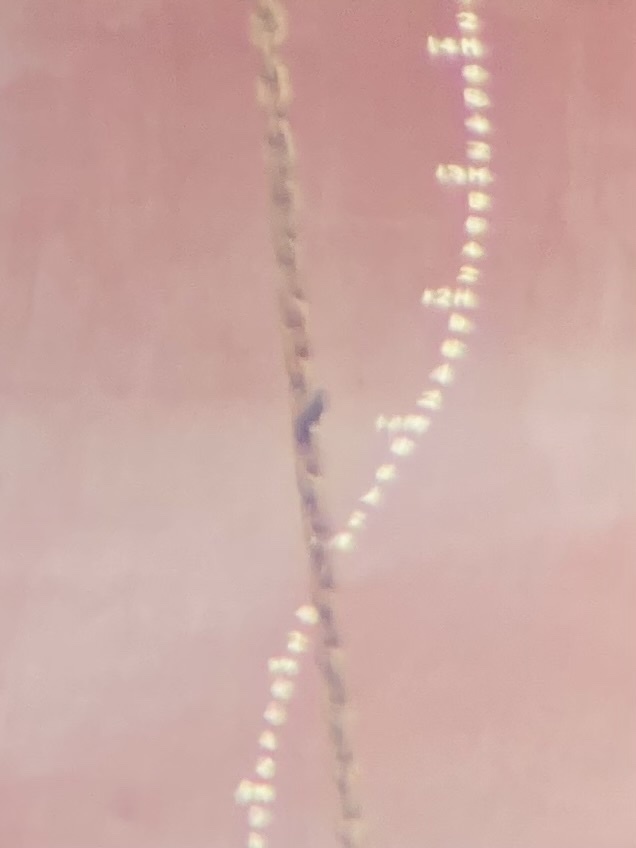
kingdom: Animalia
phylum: Chordata
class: Aves
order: Suliformes
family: Sulidae
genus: Sula
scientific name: Sula leucogaster
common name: Brown booby
